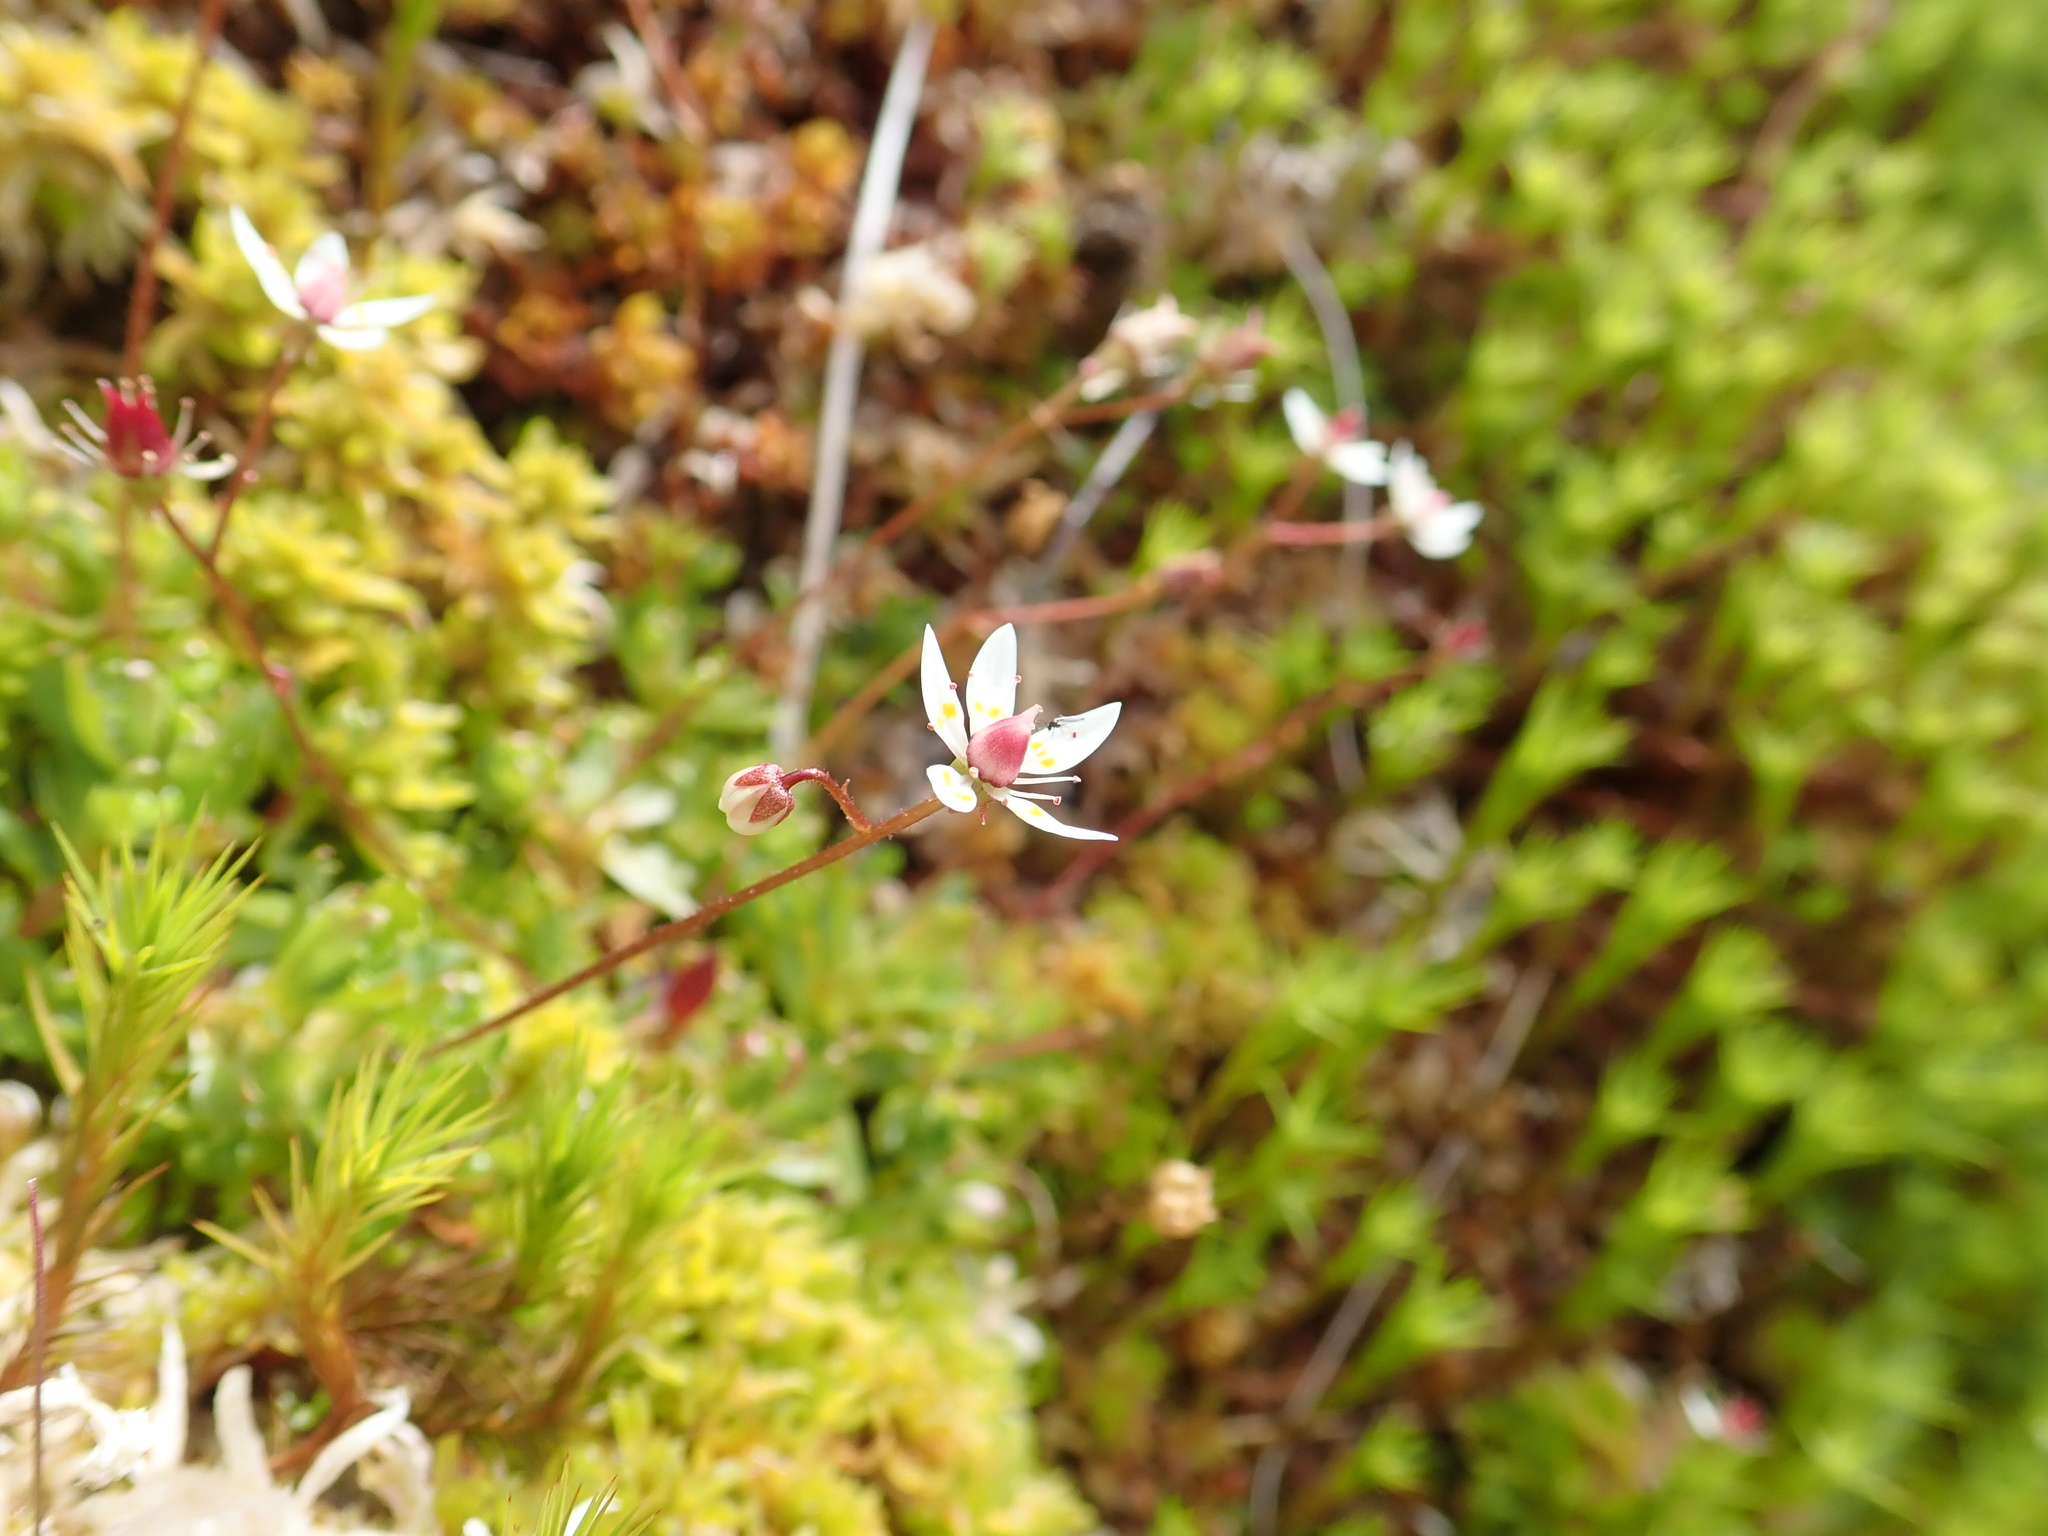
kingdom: Plantae
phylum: Tracheophyta
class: Magnoliopsida
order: Saxifragales
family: Saxifragaceae
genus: Micranthes
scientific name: Micranthes stellaris
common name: Starry saxifrage
